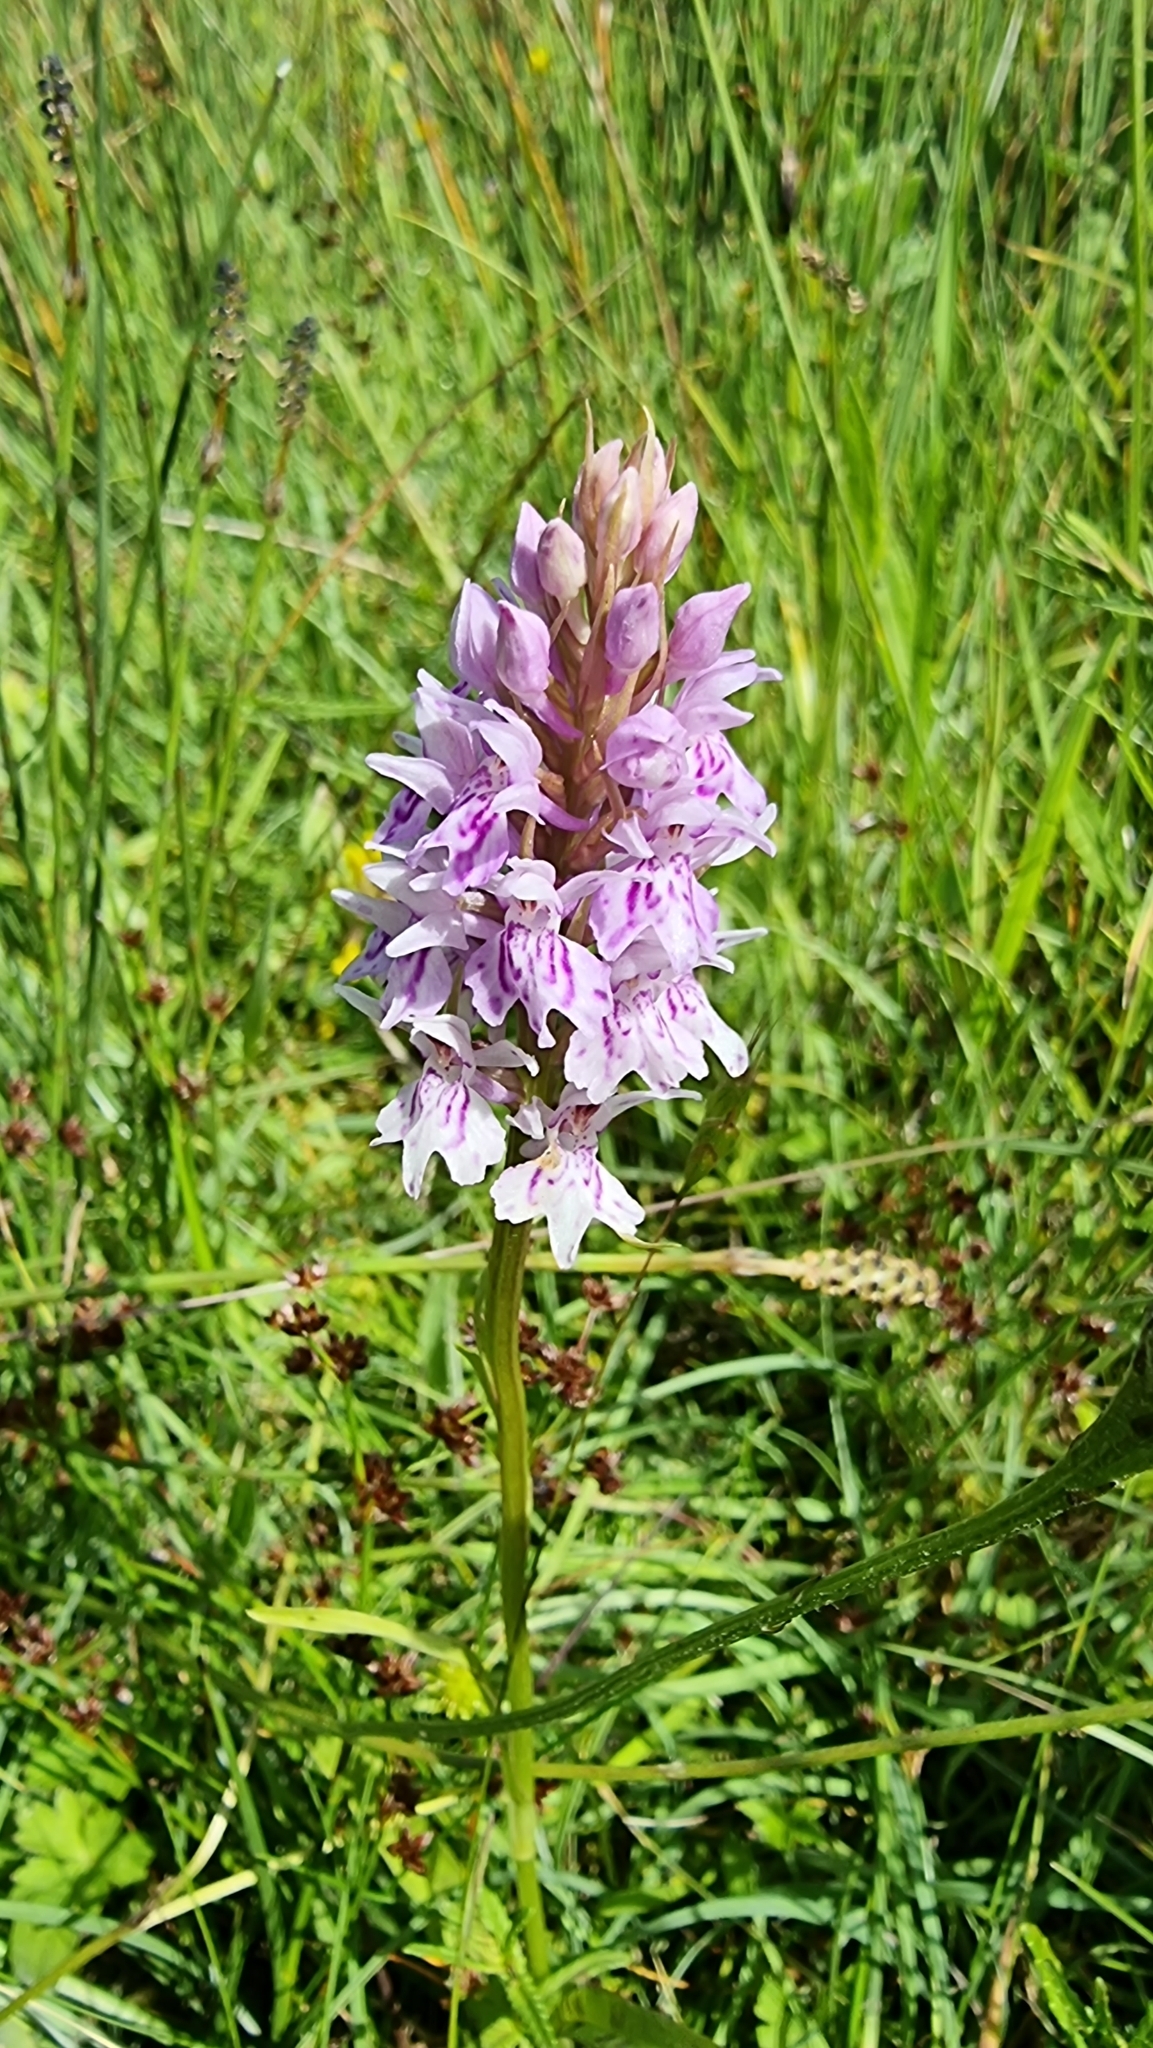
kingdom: Plantae
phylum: Tracheophyta
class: Liliopsida
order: Asparagales
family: Orchidaceae
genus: Dactylorhiza
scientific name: Dactylorhiza maculata
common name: Heath spotted-orchid
